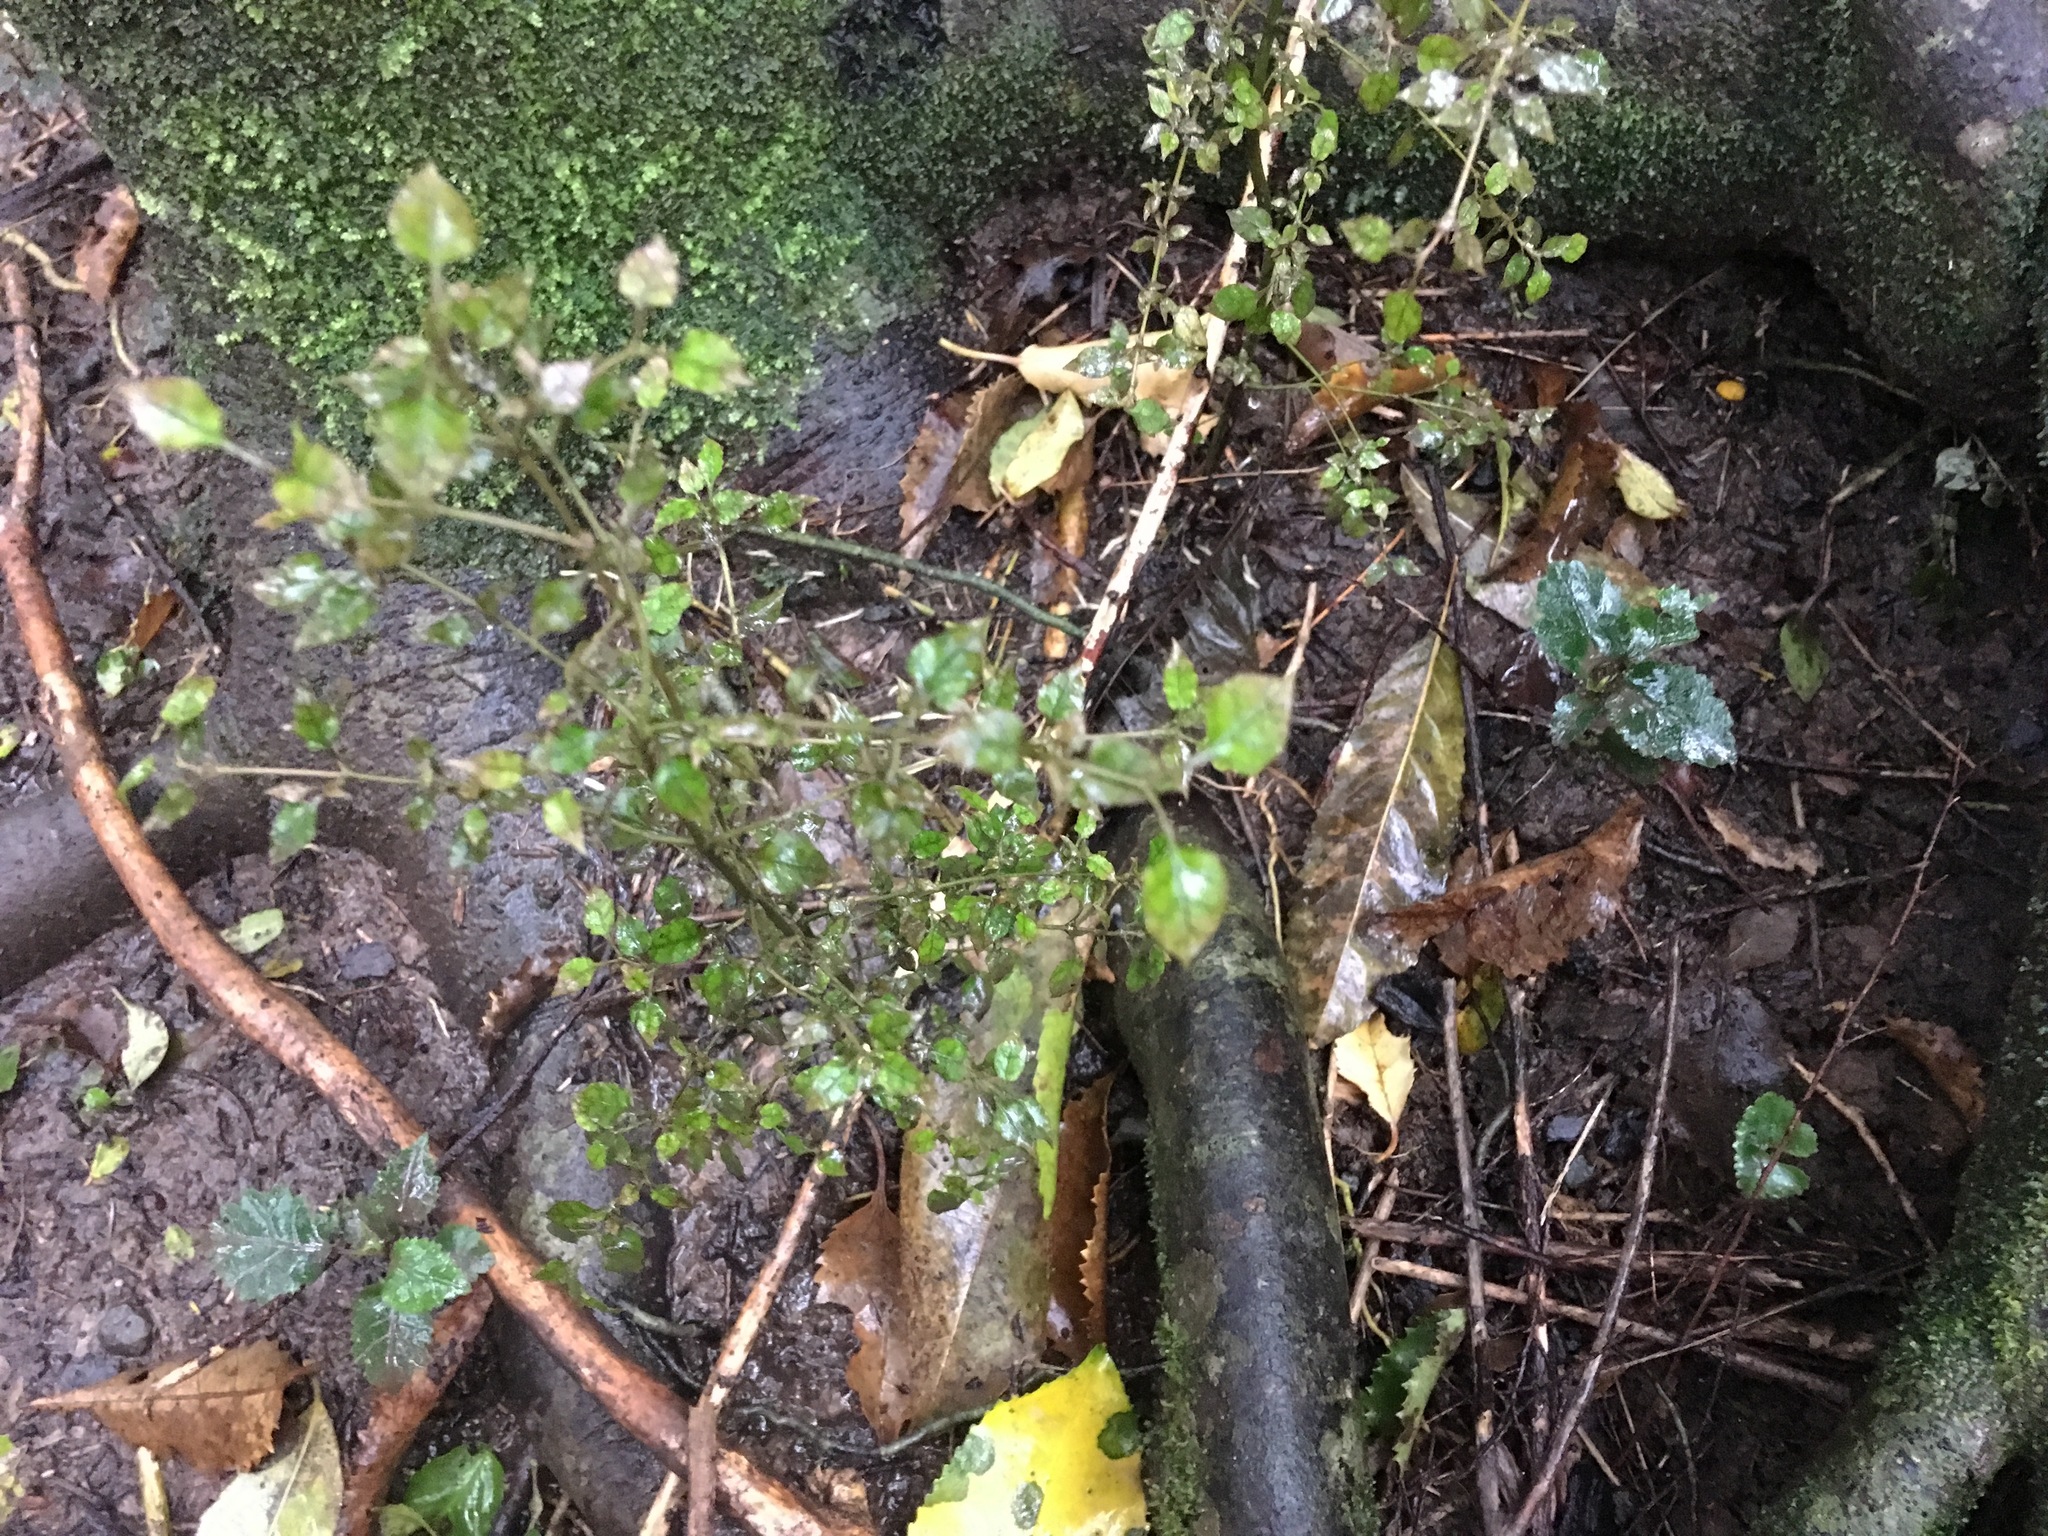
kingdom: Plantae
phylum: Tracheophyta
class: Magnoliopsida
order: Gentianales
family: Rubiaceae
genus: Coprosma
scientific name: Coprosma areolata
